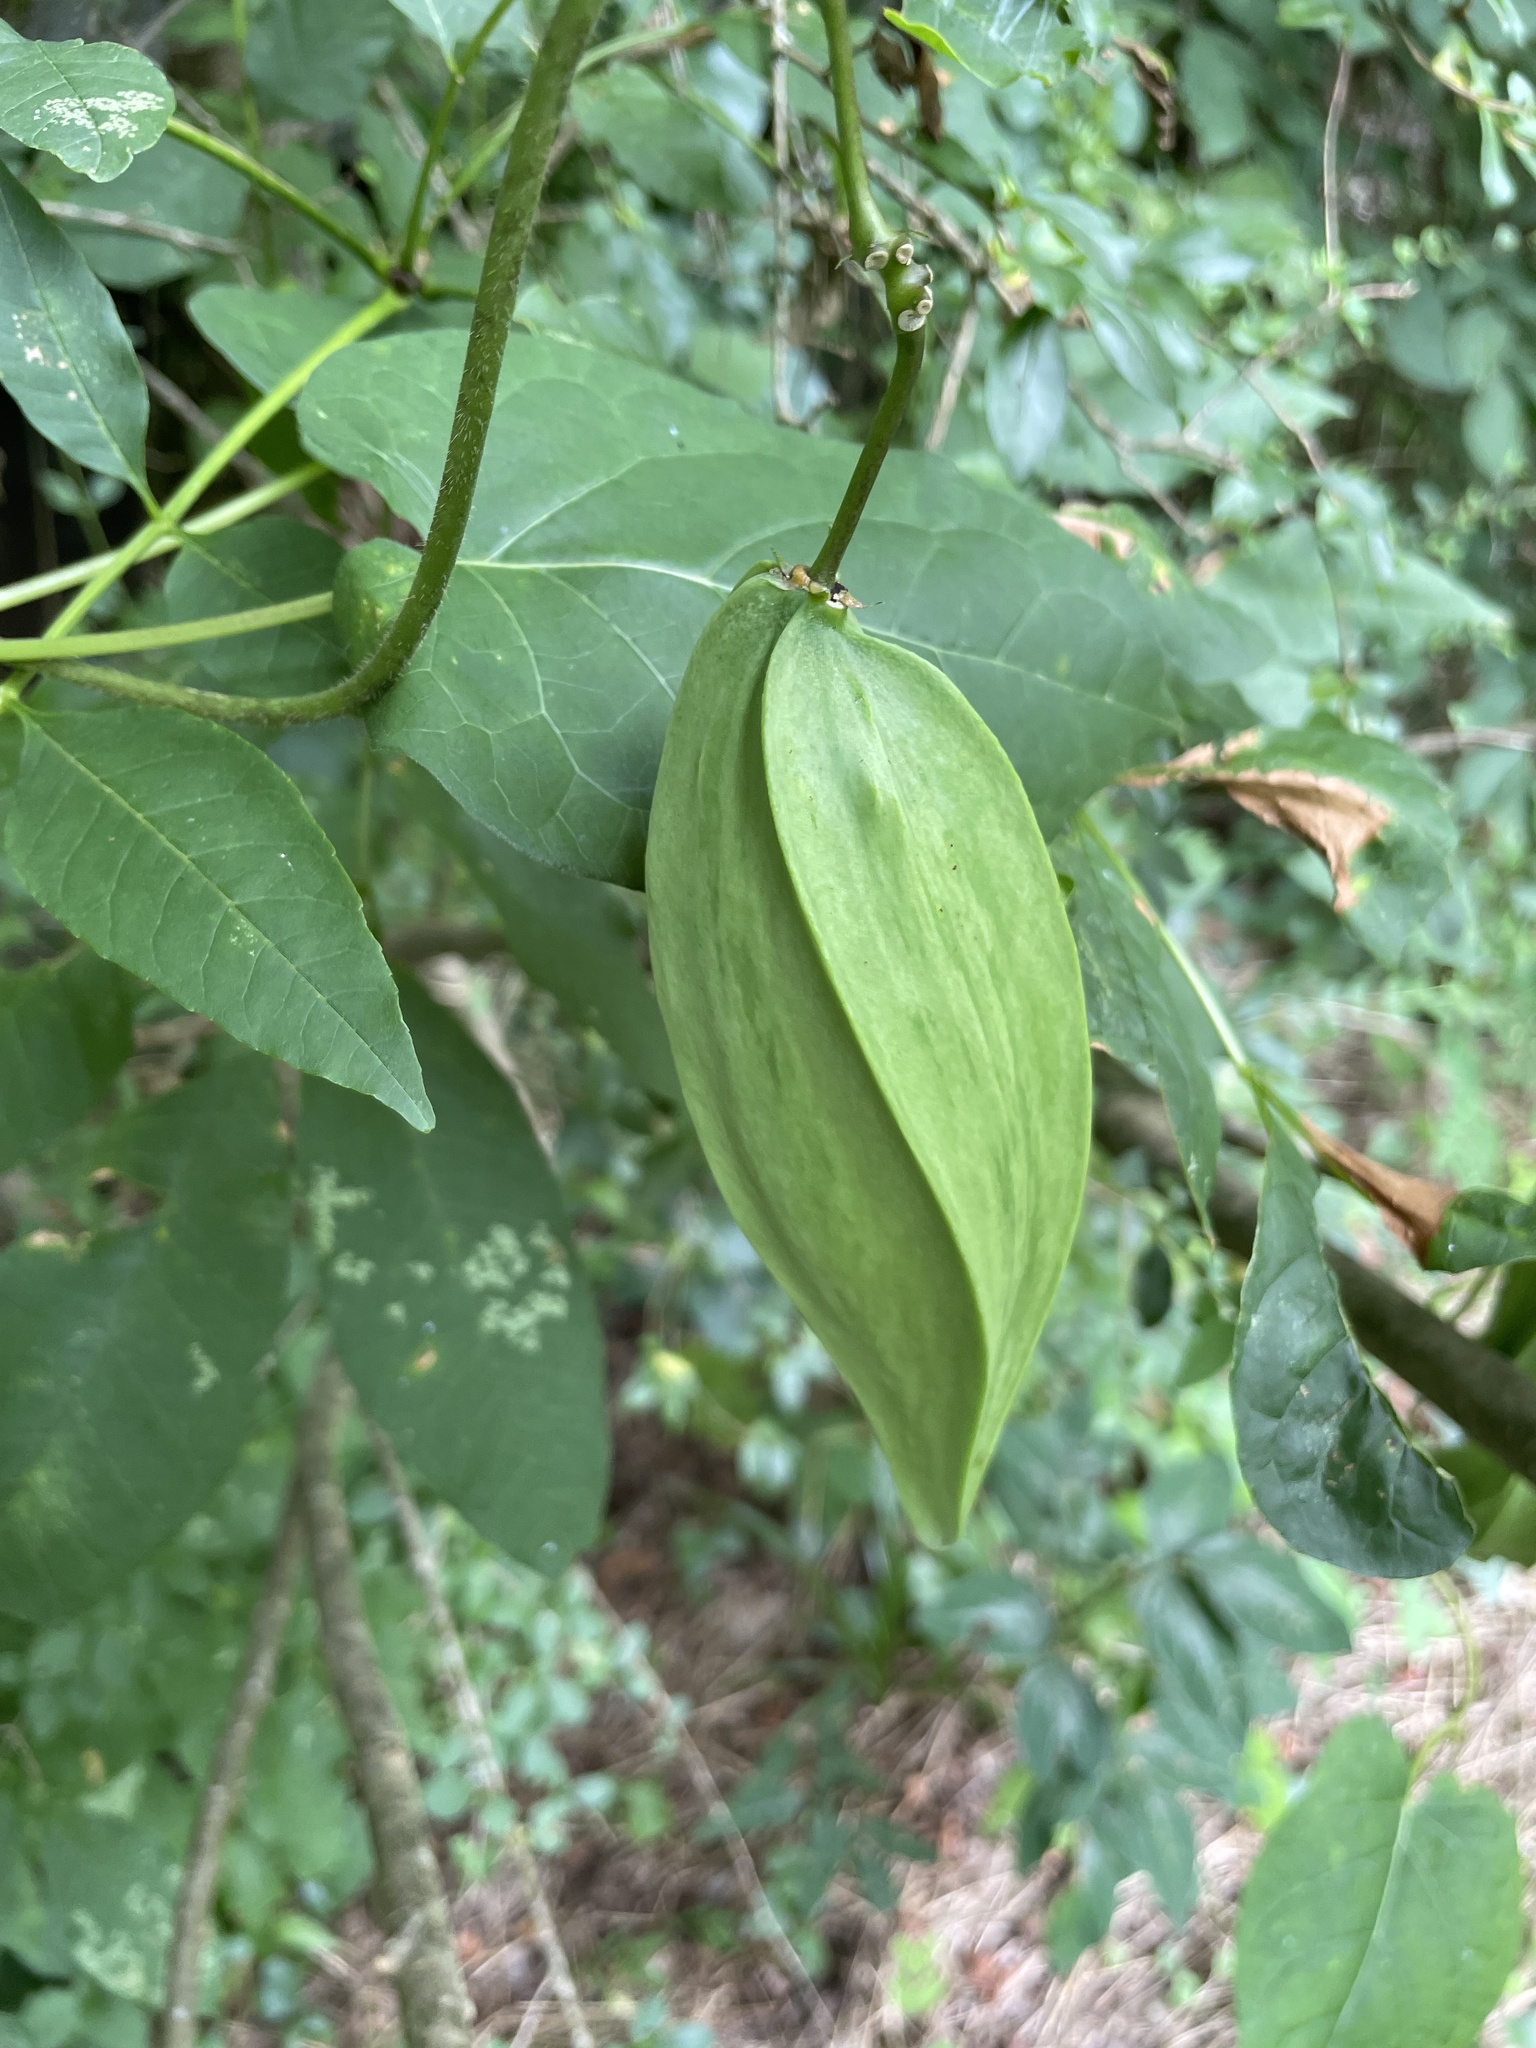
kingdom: Plantae
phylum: Tracheophyta
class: Magnoliopsida
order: Gentianales
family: Apocynaceae
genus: Gonolobus
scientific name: Gonolobus suberosus
